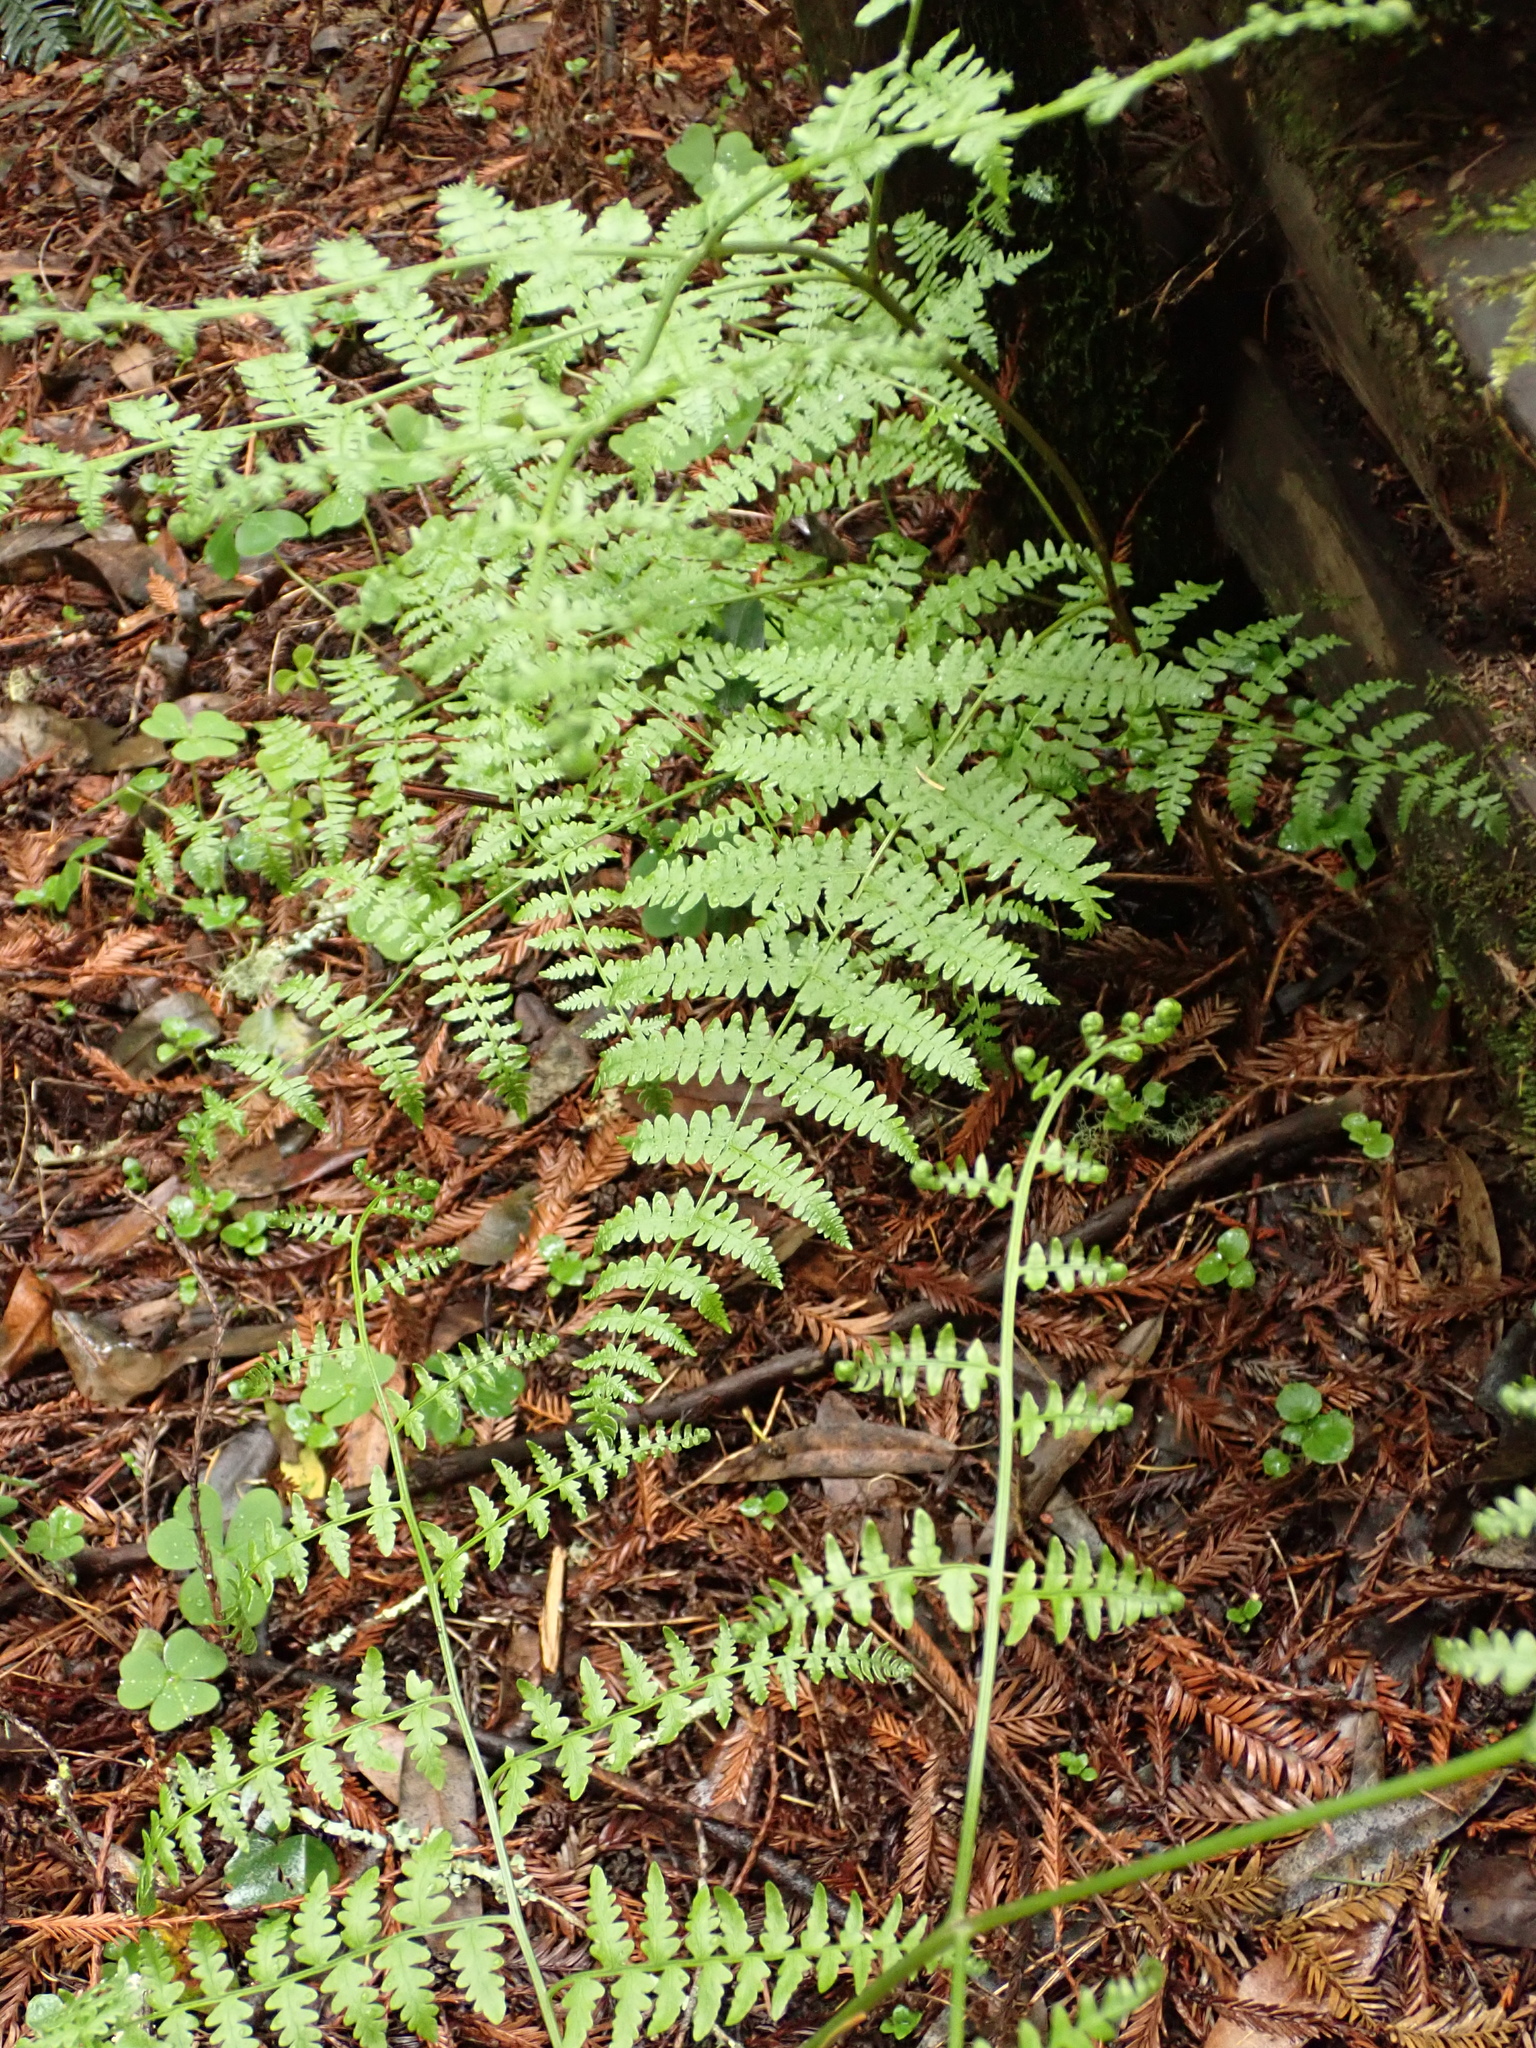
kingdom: Plantae
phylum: Tracheophyta
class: Polypodiopsida
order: Polypodiales
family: Dennstaedtiaceae
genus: Pteridium
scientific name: Pteridium aquilinum
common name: Bracken
